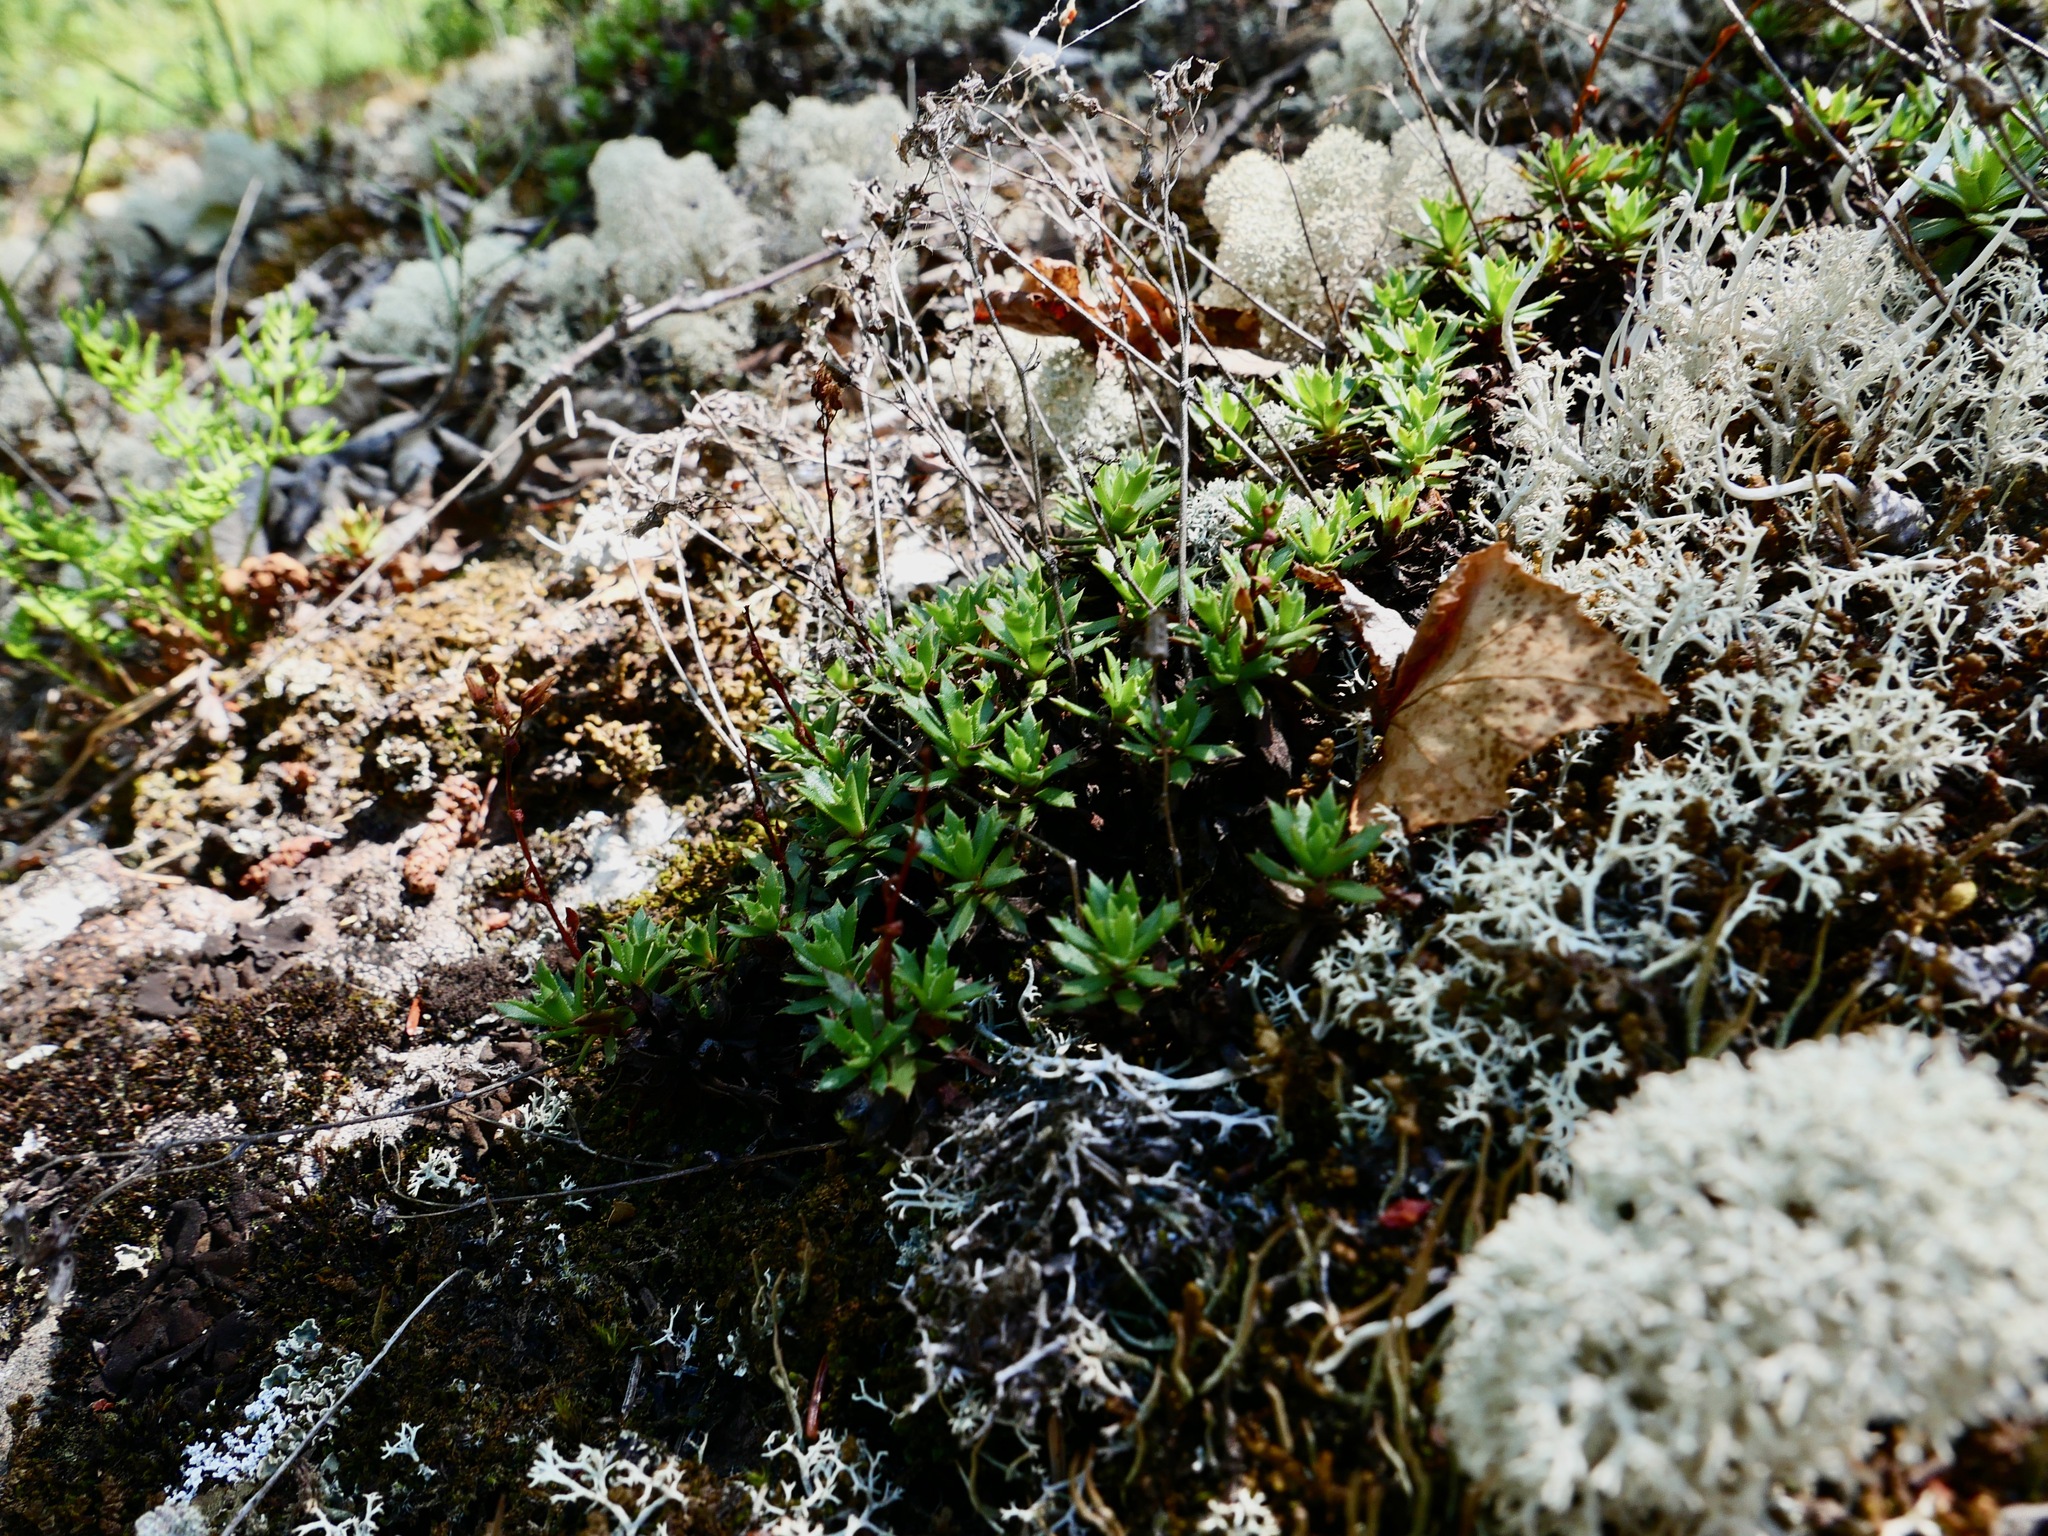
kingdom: Plantae
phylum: Tracheophyta
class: Magnoliopsida
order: Saxifragales
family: Saxifragaceae
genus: Saxifraga
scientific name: Saxifraga tricuspidata
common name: Prickly saxifrage
